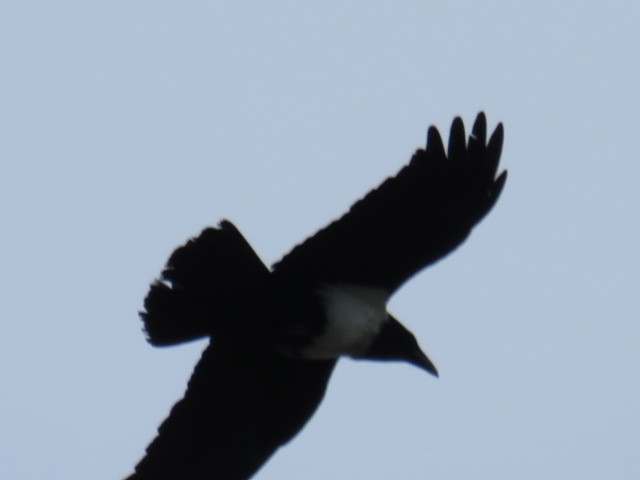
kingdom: Animalia
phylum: Chordata
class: Aves
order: Passeriformes
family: Corvidae
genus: Corvus
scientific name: Corvus albus
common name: Pied crow
